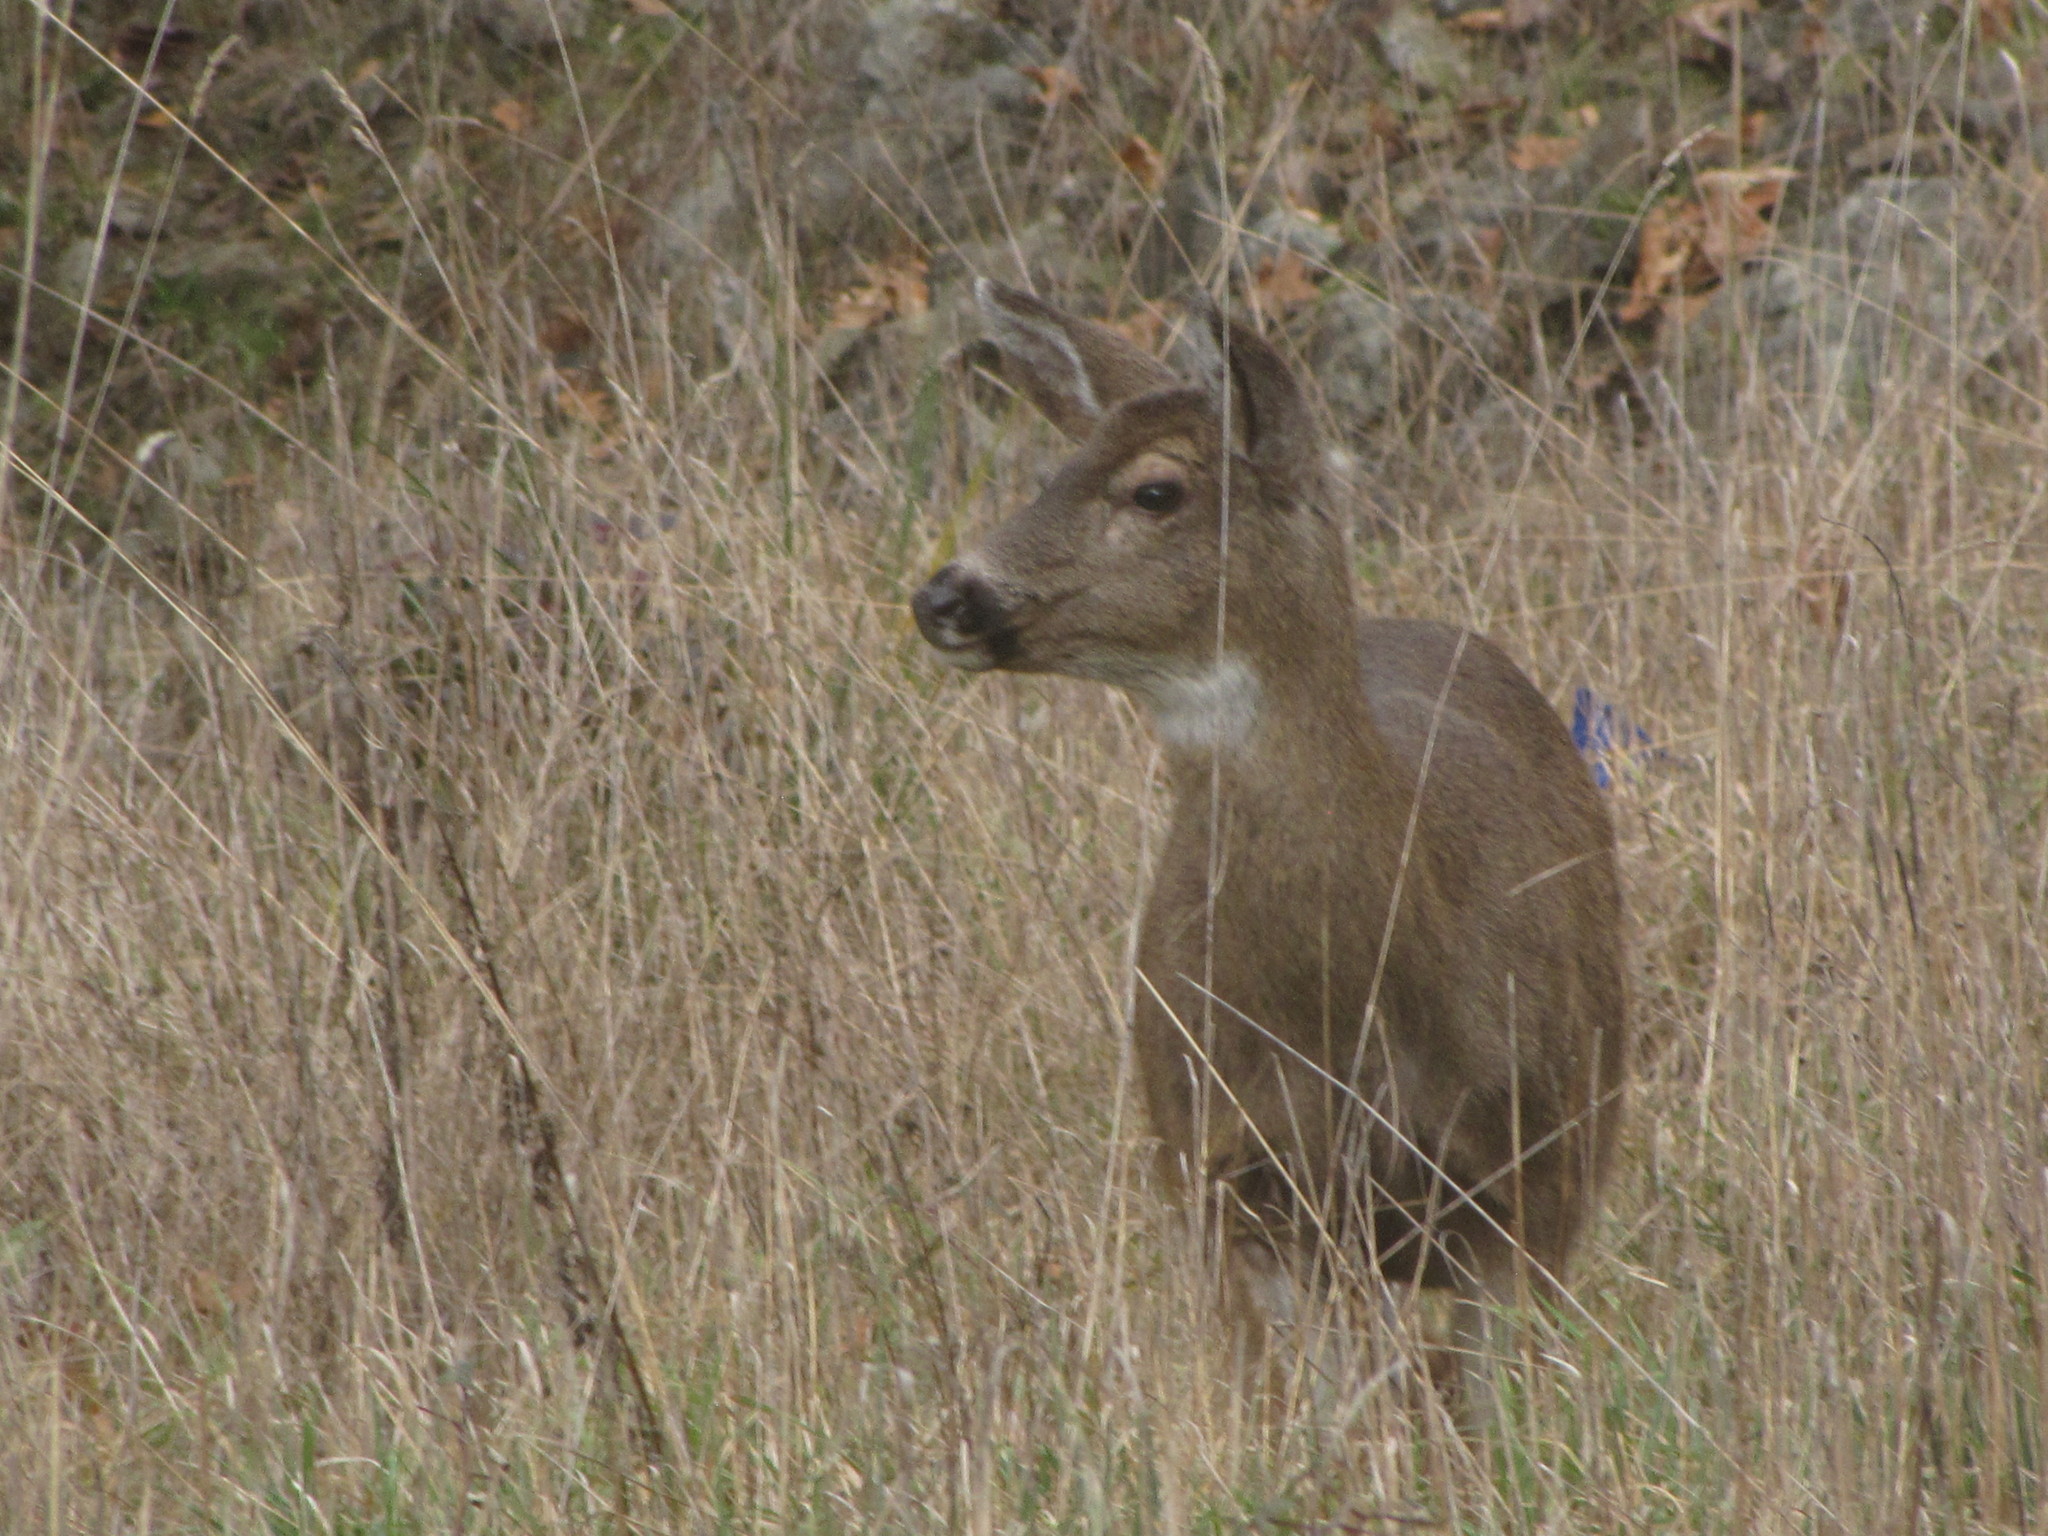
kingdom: Animalia
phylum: Chordata
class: Mammalia
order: Artiodactyla
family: Cervidae
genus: Odocoileus
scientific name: Odocoileus hemionus
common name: Mule deer
